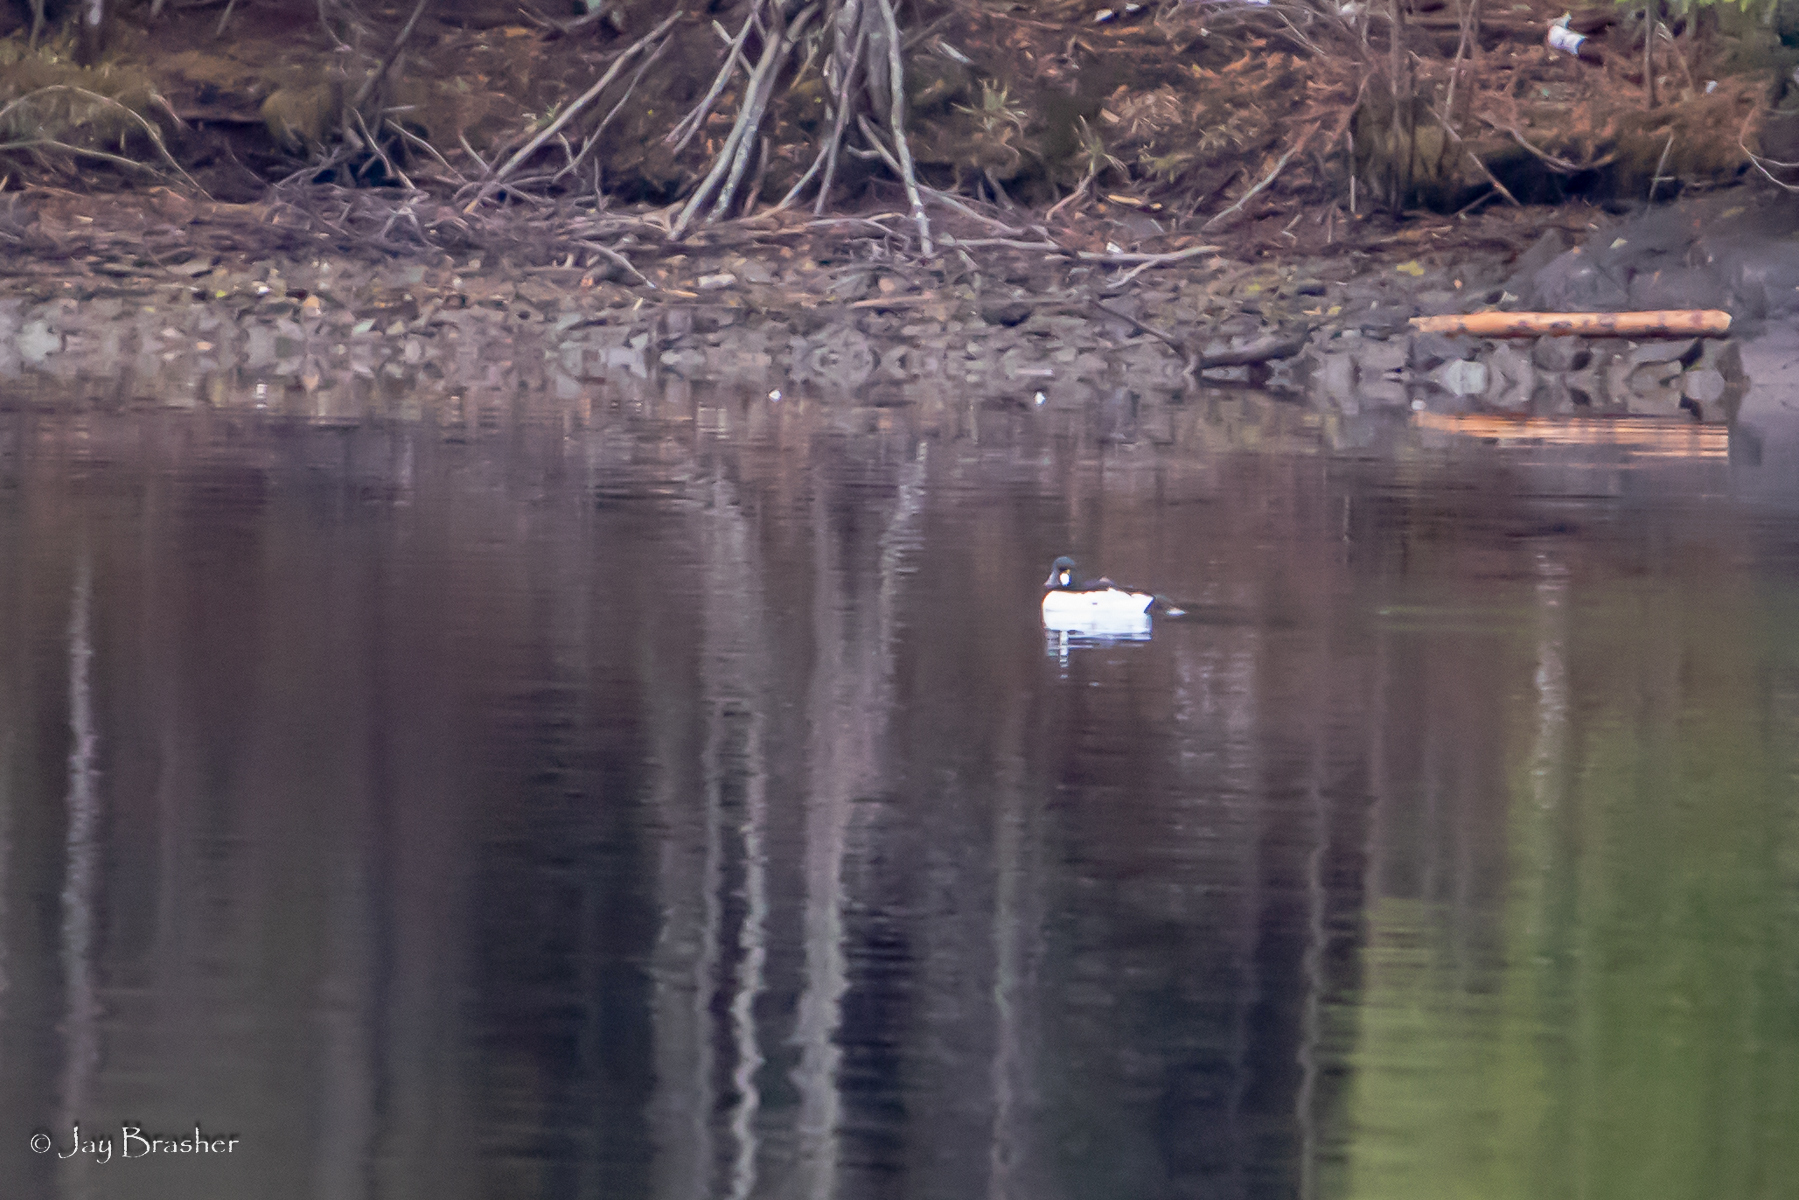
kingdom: Animalia
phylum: Chordata
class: Aves
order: Anseriformes
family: Anatidae
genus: Bucephala
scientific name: Bucephala clangula
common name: Common goldeneye
